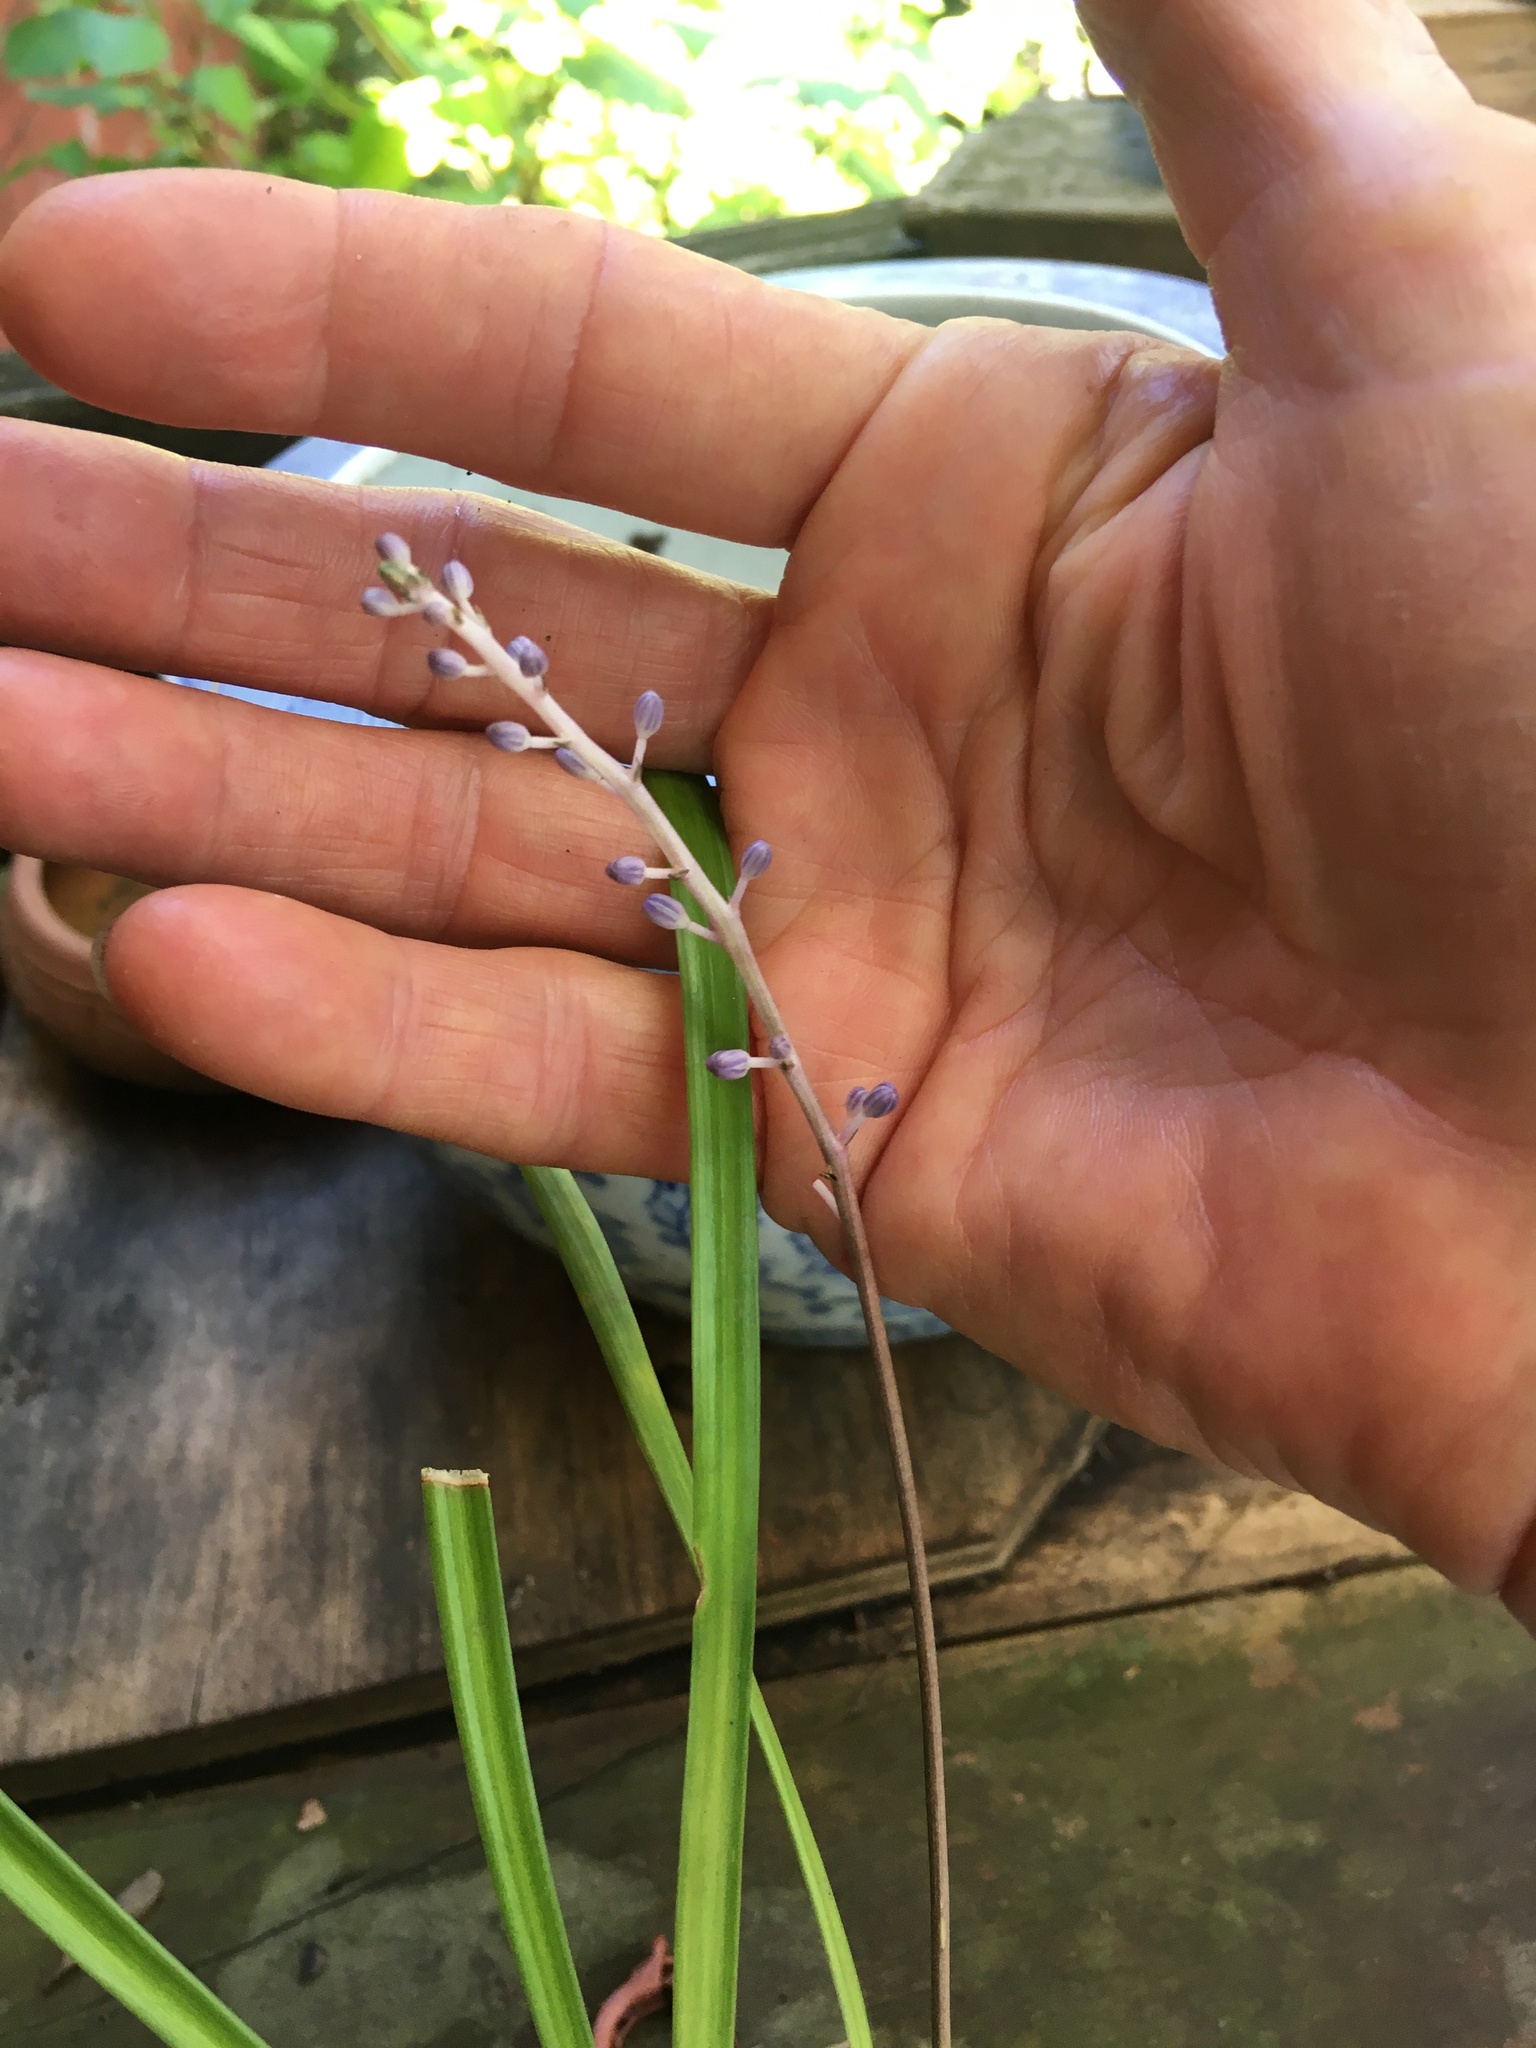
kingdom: Plantae
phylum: Tracheophyta
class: Liliopsida
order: Asparagales
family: Asparagaceae
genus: Liriope
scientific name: Liriope muscari
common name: Big blue lilyturf
